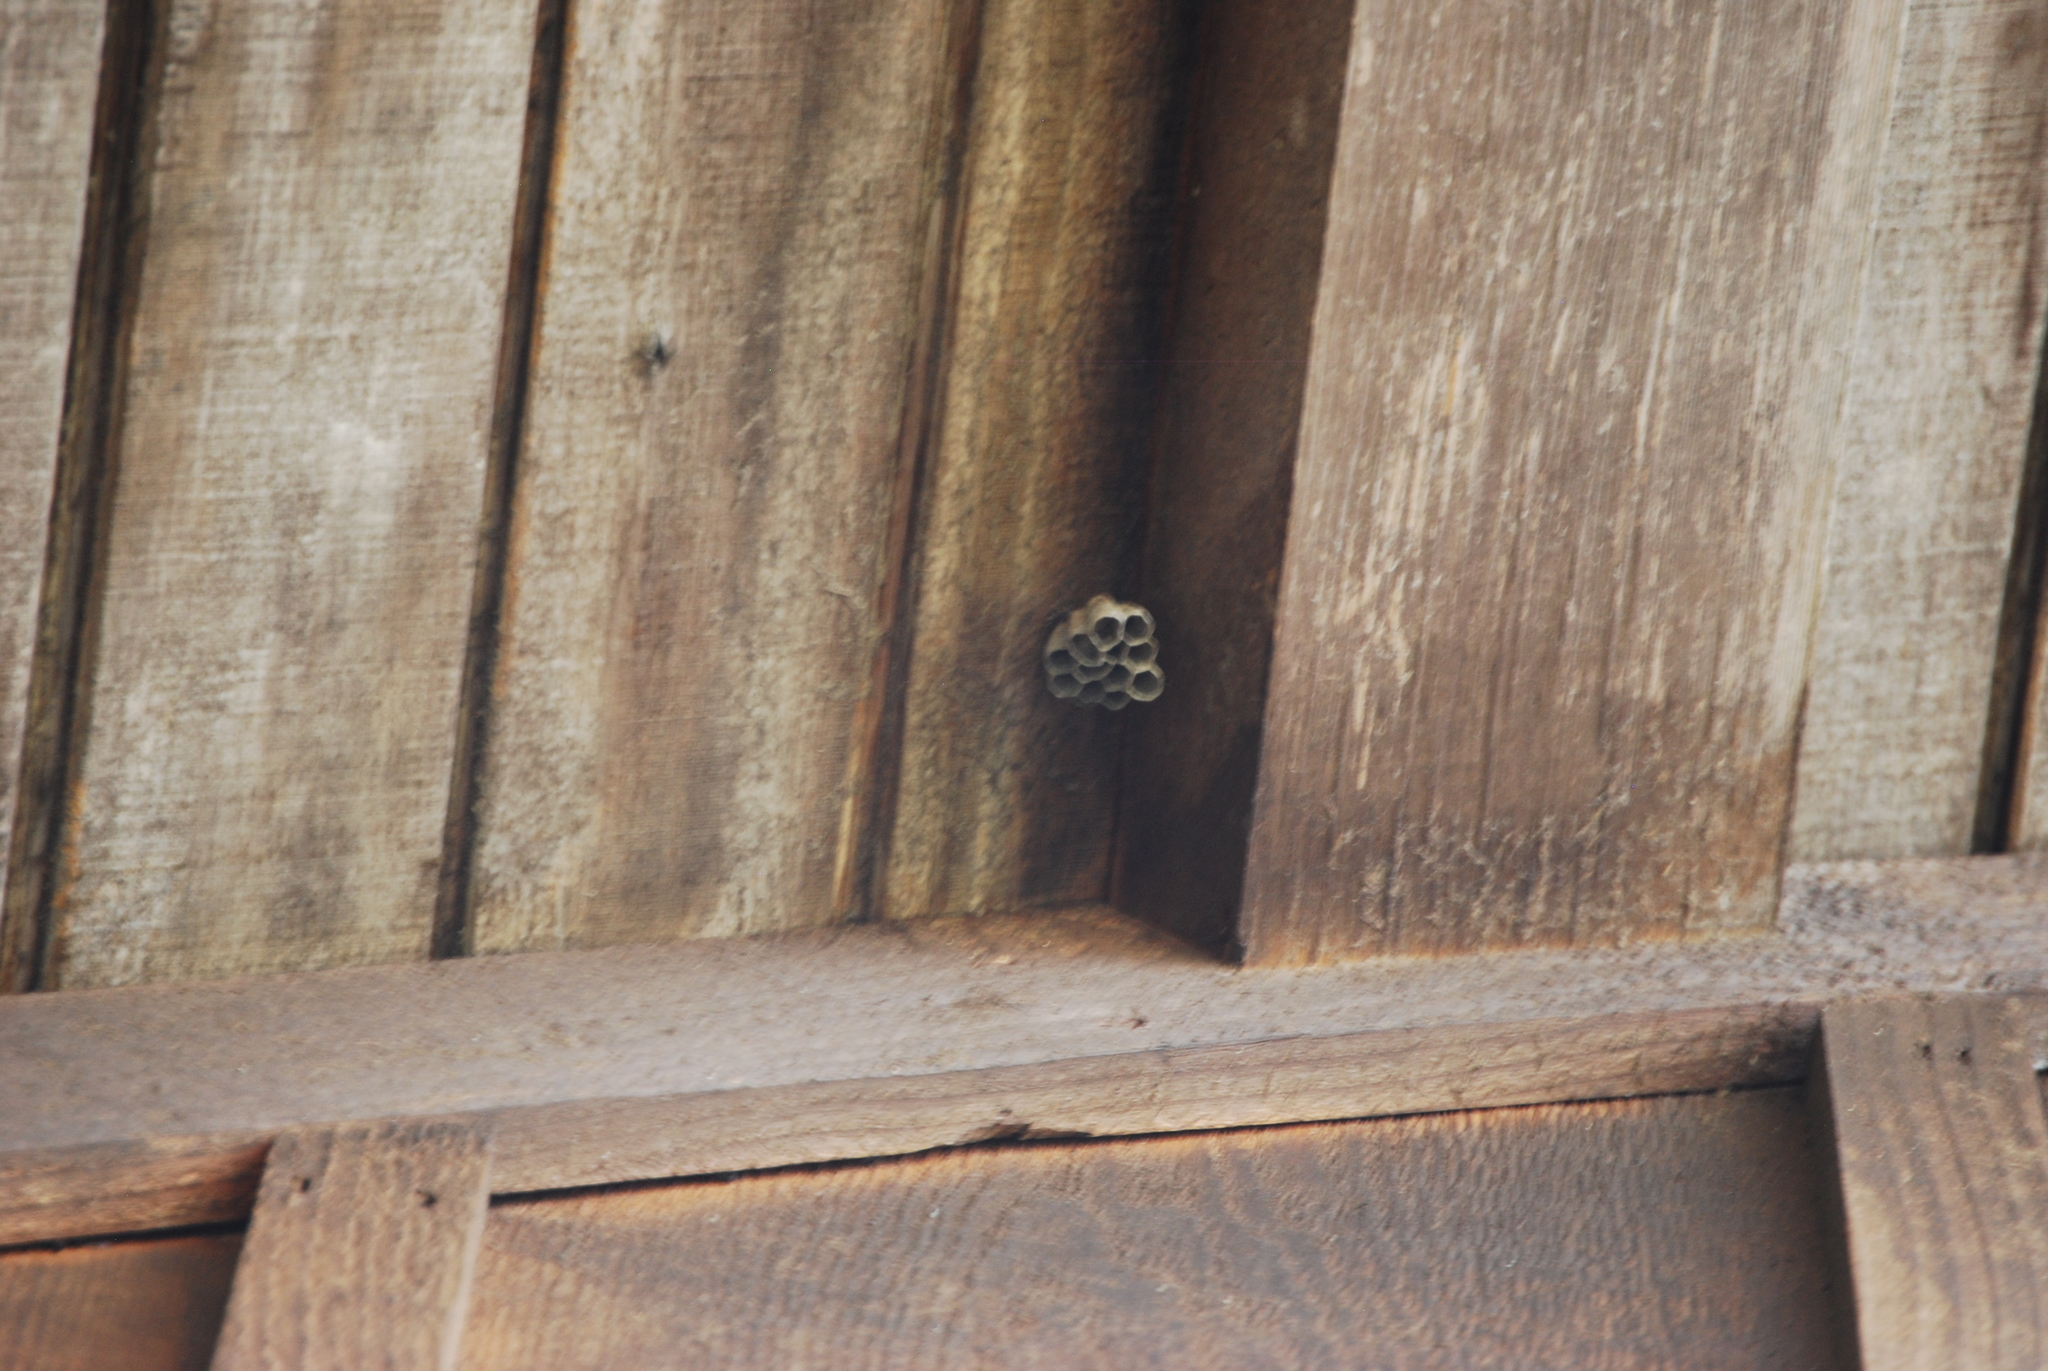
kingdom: Animalia
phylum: Arthropoda
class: Insecta
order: Hymenoptera
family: Eumenidae
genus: Polistes
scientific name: Polistes
